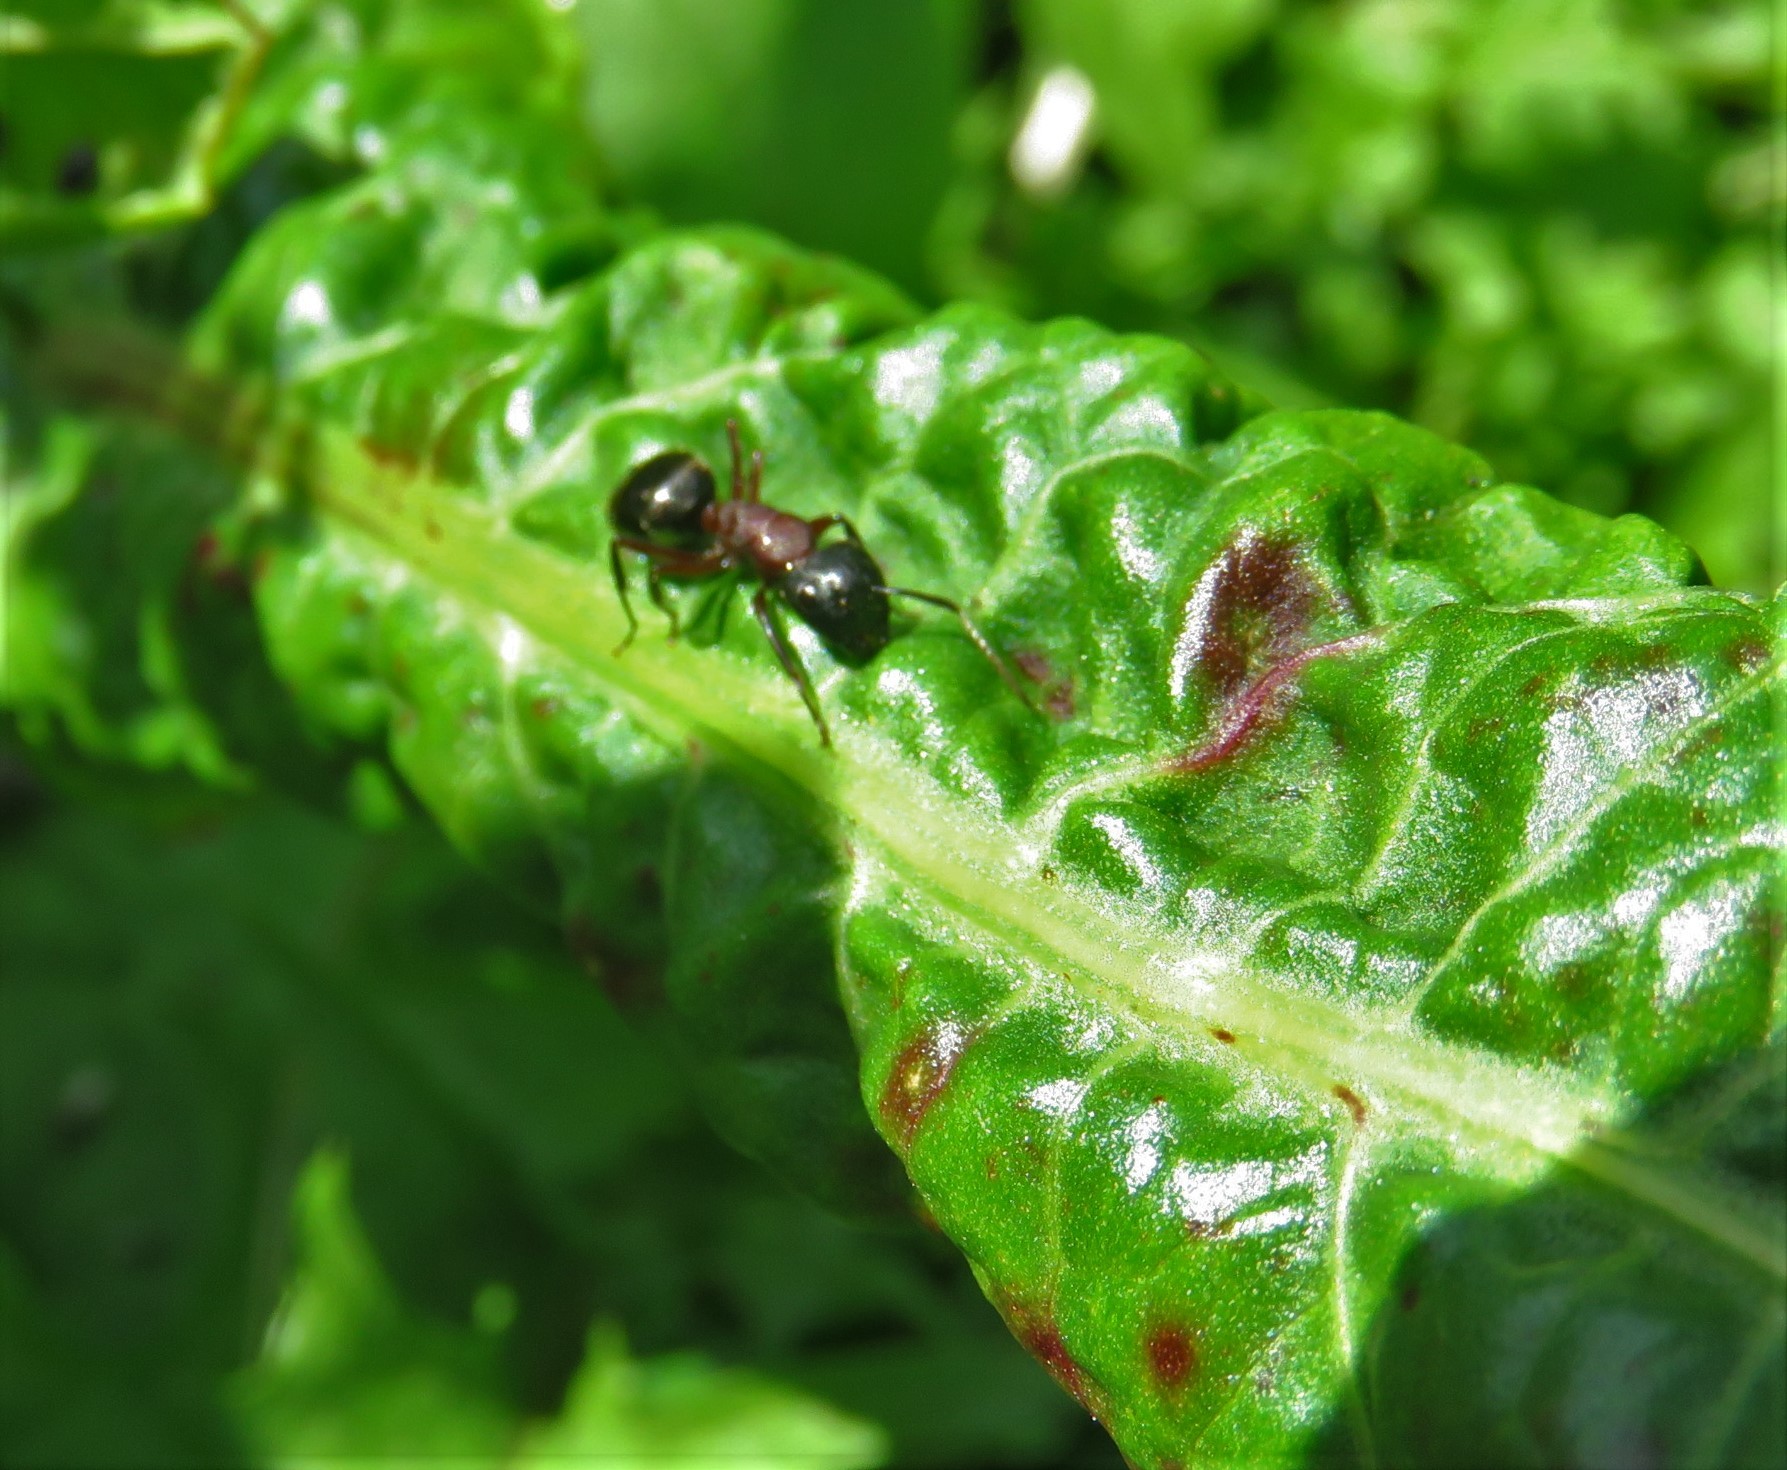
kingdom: Animalia
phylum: Arthropoda
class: Insecta
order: Hymenoptera
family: Formicidae
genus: Camponotus
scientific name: Camponotus novaeboracensis
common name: New york carpenter ant
